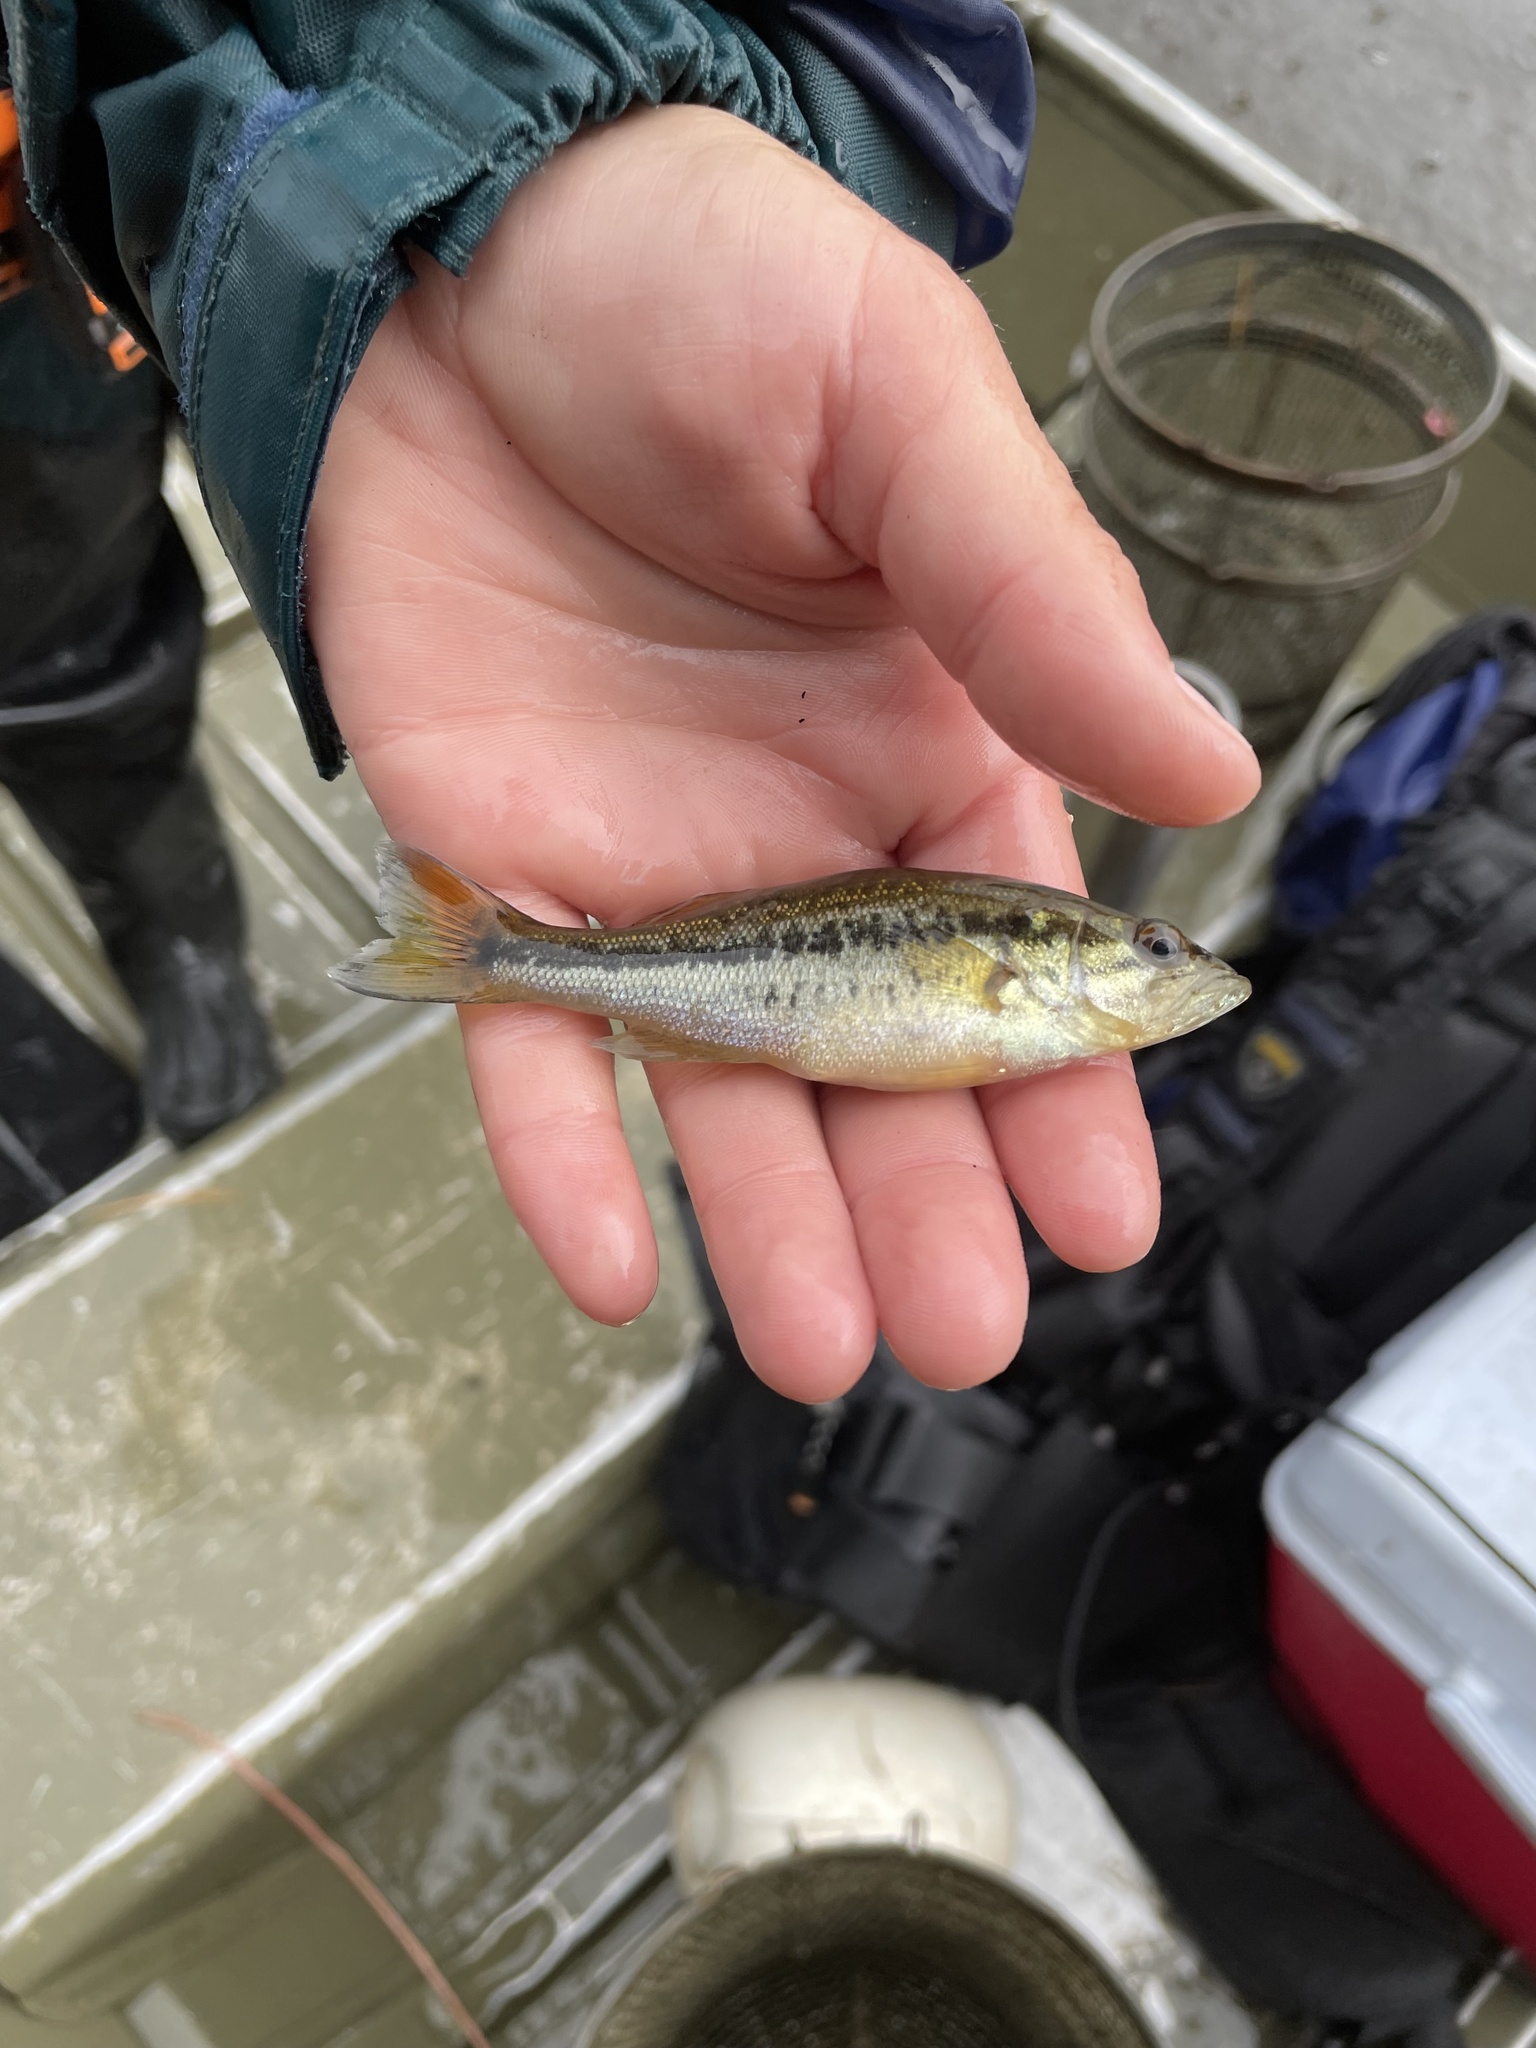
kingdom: Animalia
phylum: Chordata
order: Perciformes
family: Centrarchidae
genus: Micropterus
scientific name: Micropterus
